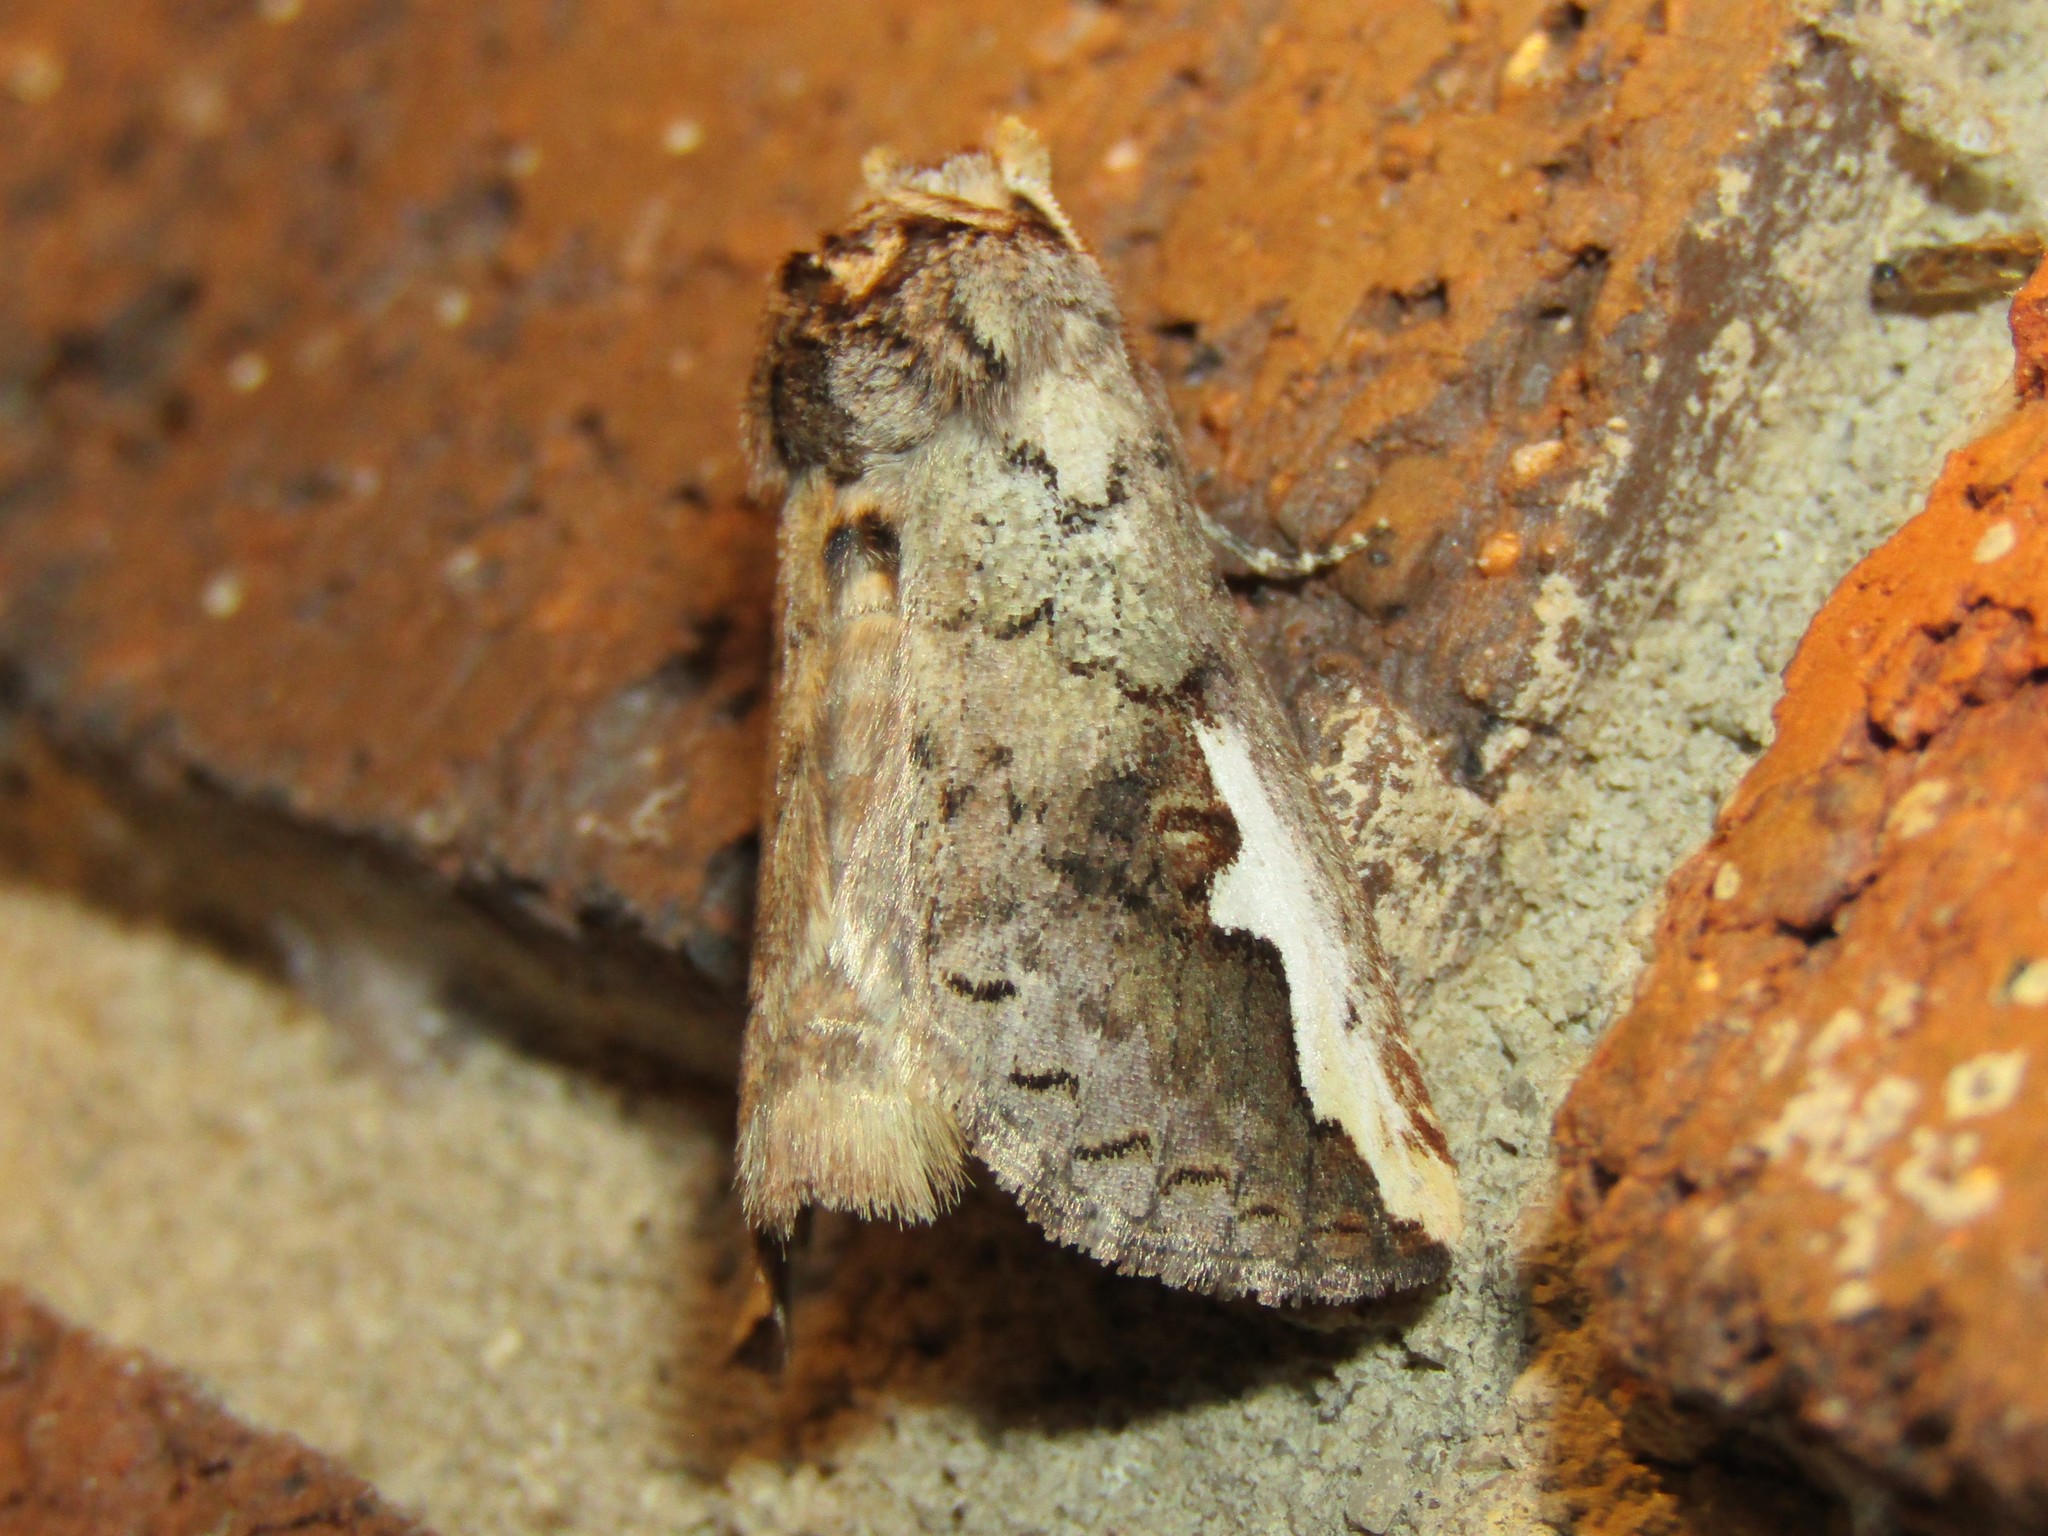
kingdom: Animalia
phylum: Arthropoda
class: Insecta
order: Lepidoptera
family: Notodontidae
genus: Symmerista
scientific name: Symmerista albifrons
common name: White-headed prominent
